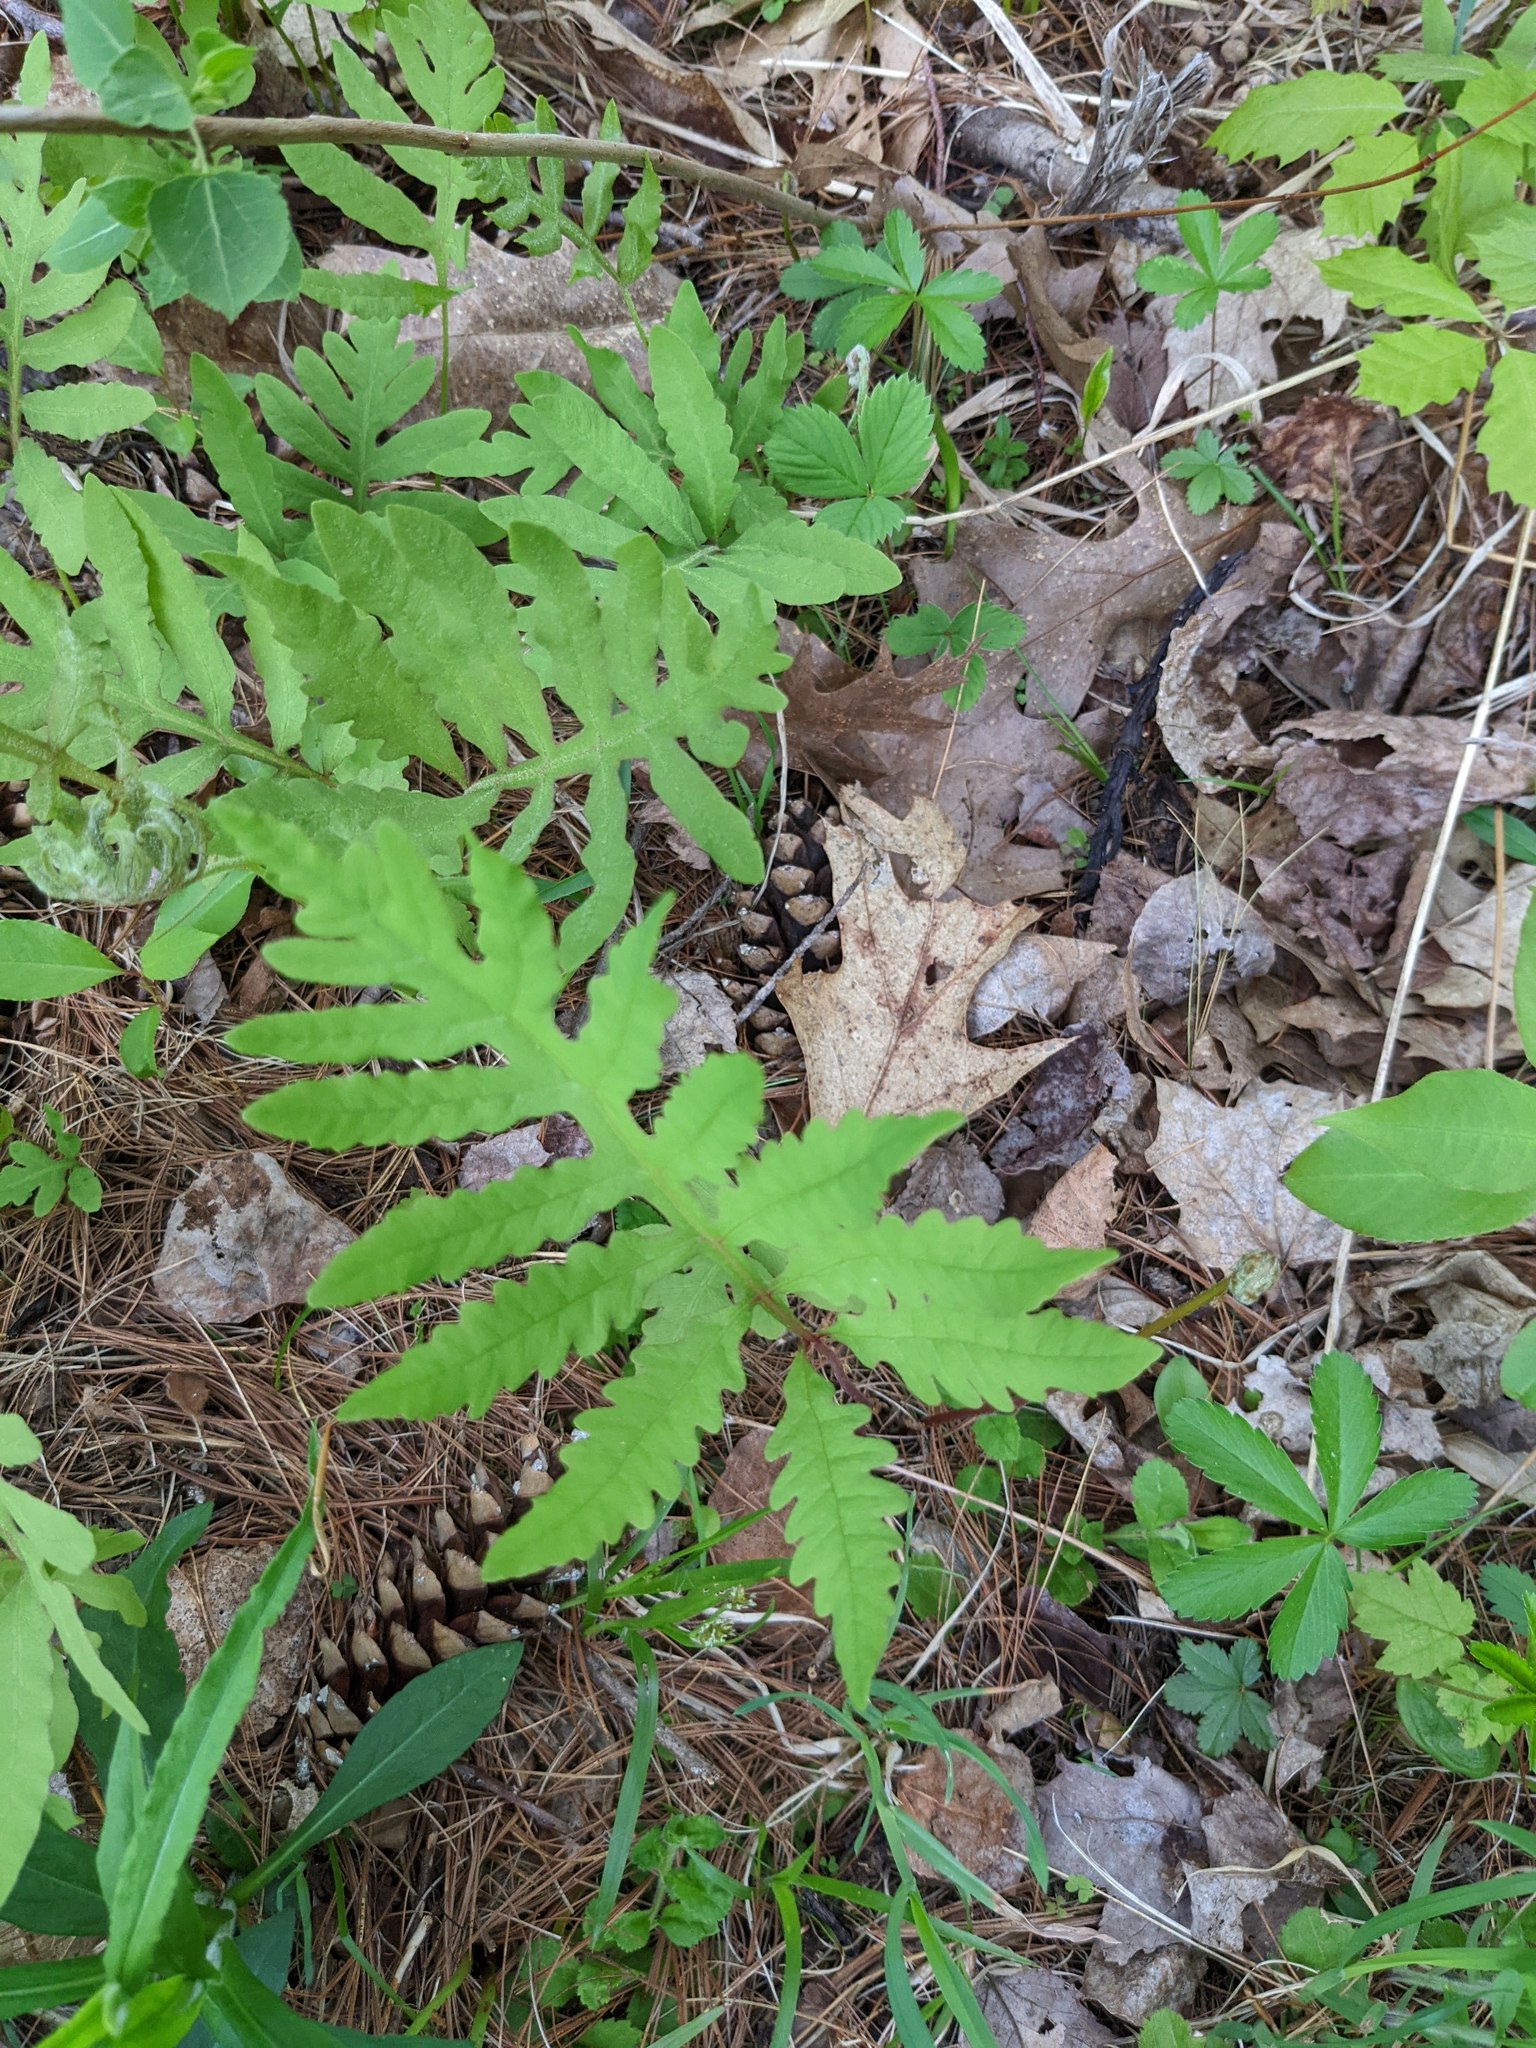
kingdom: Plantae
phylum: Tracheophyta
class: Polypodiopsida
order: Polypodiales
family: Onocleaceae
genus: Onoclea
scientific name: Onoclea sensibilis
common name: Sensitive fern
